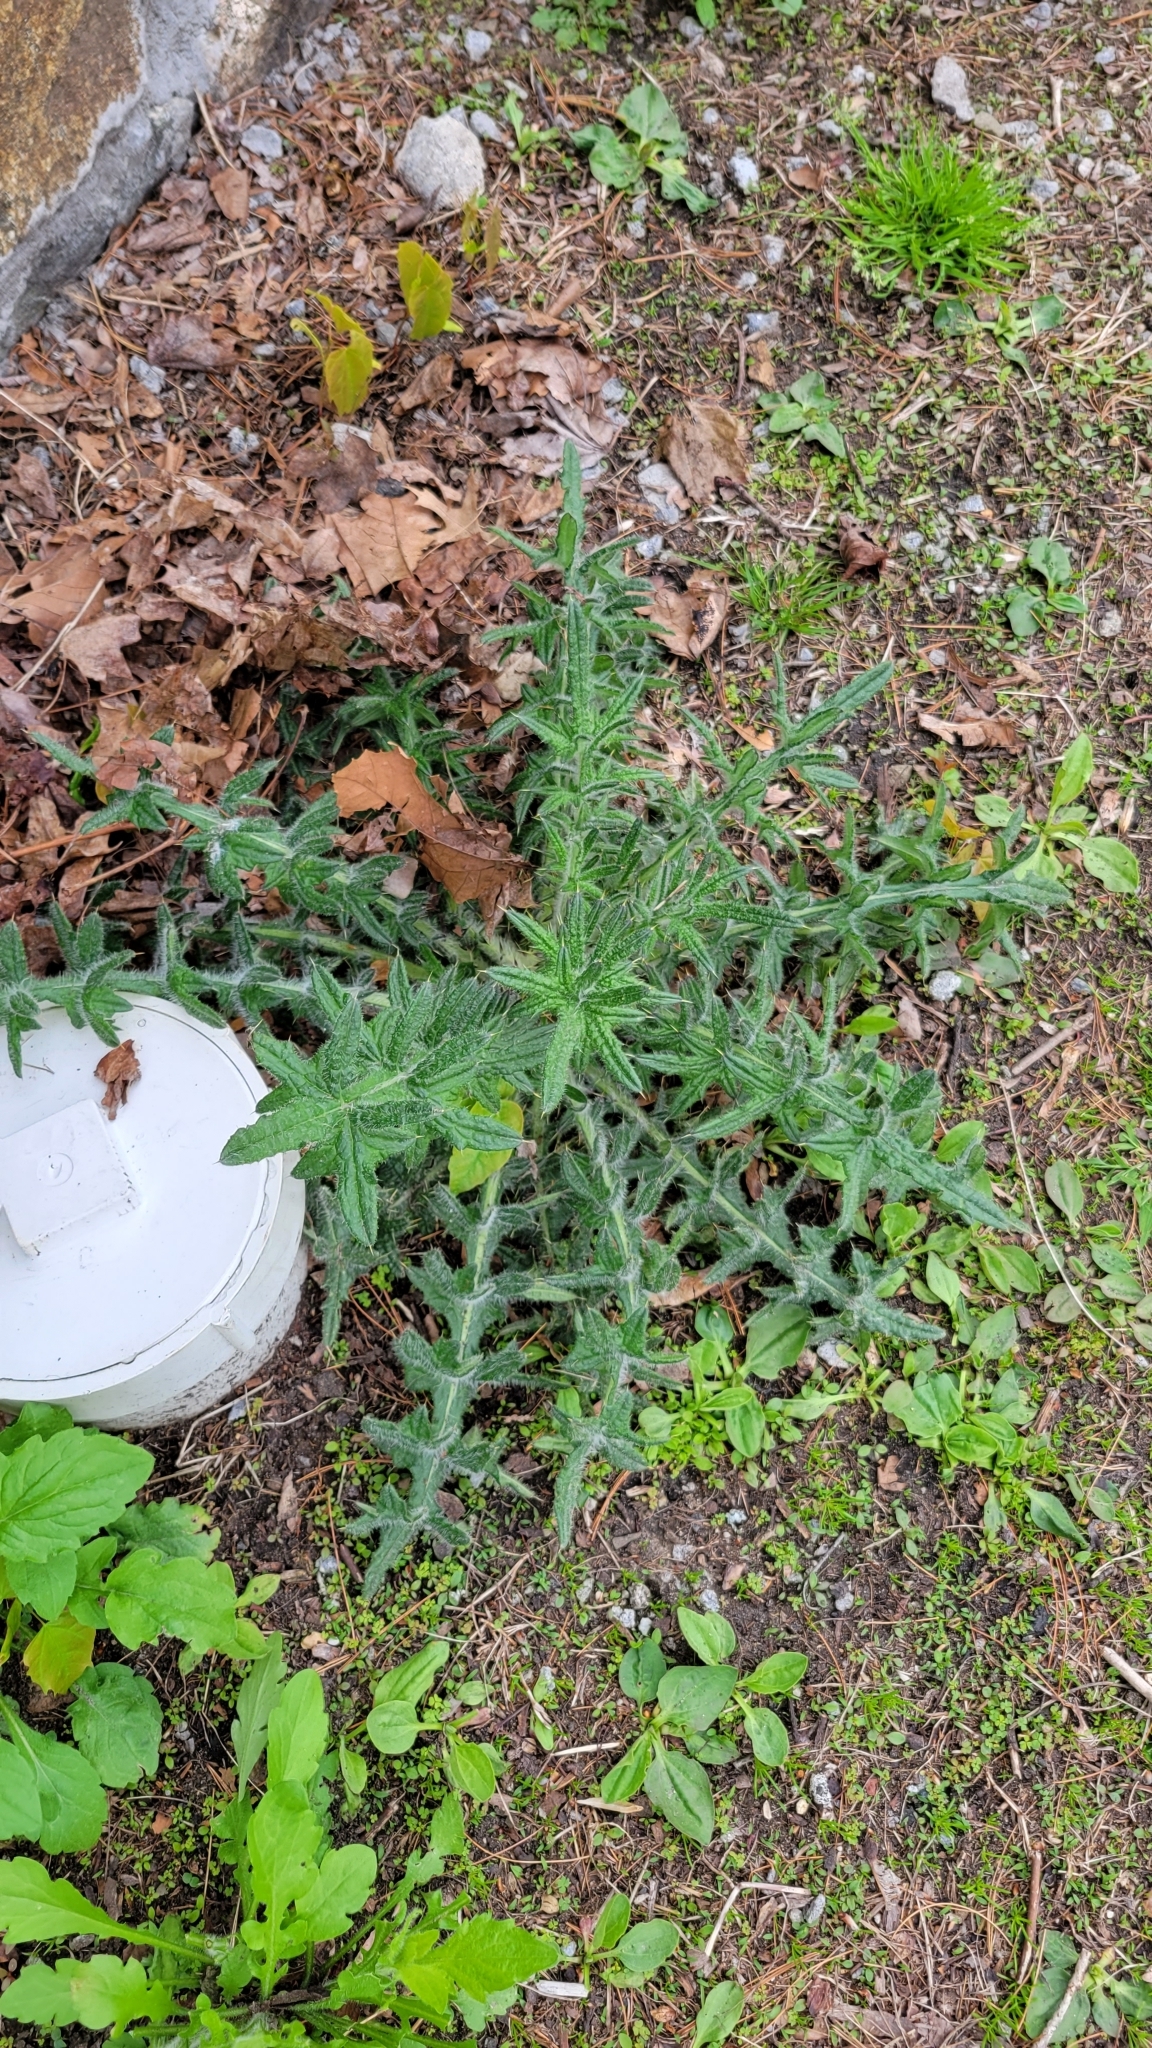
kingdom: Plantae
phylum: Tracheophyta
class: Magnoliopsida
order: Asterales
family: Asteraceae
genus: Cirsium
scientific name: Cirsium vulgare
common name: Bull thistle
